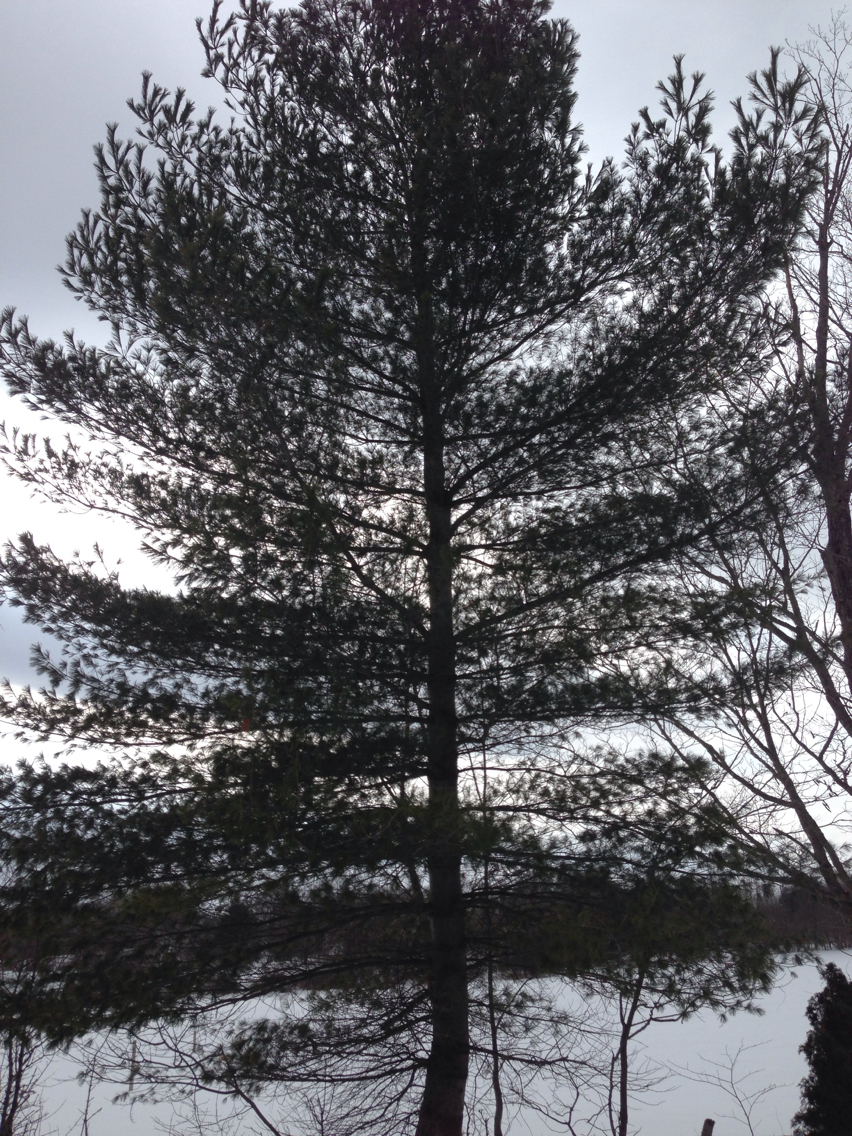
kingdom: Plantae
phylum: Tracheophyta
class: Pinopsida
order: Pinales
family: Pinaceae
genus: Pinus
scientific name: Pinus strobus
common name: Weymouth pine
